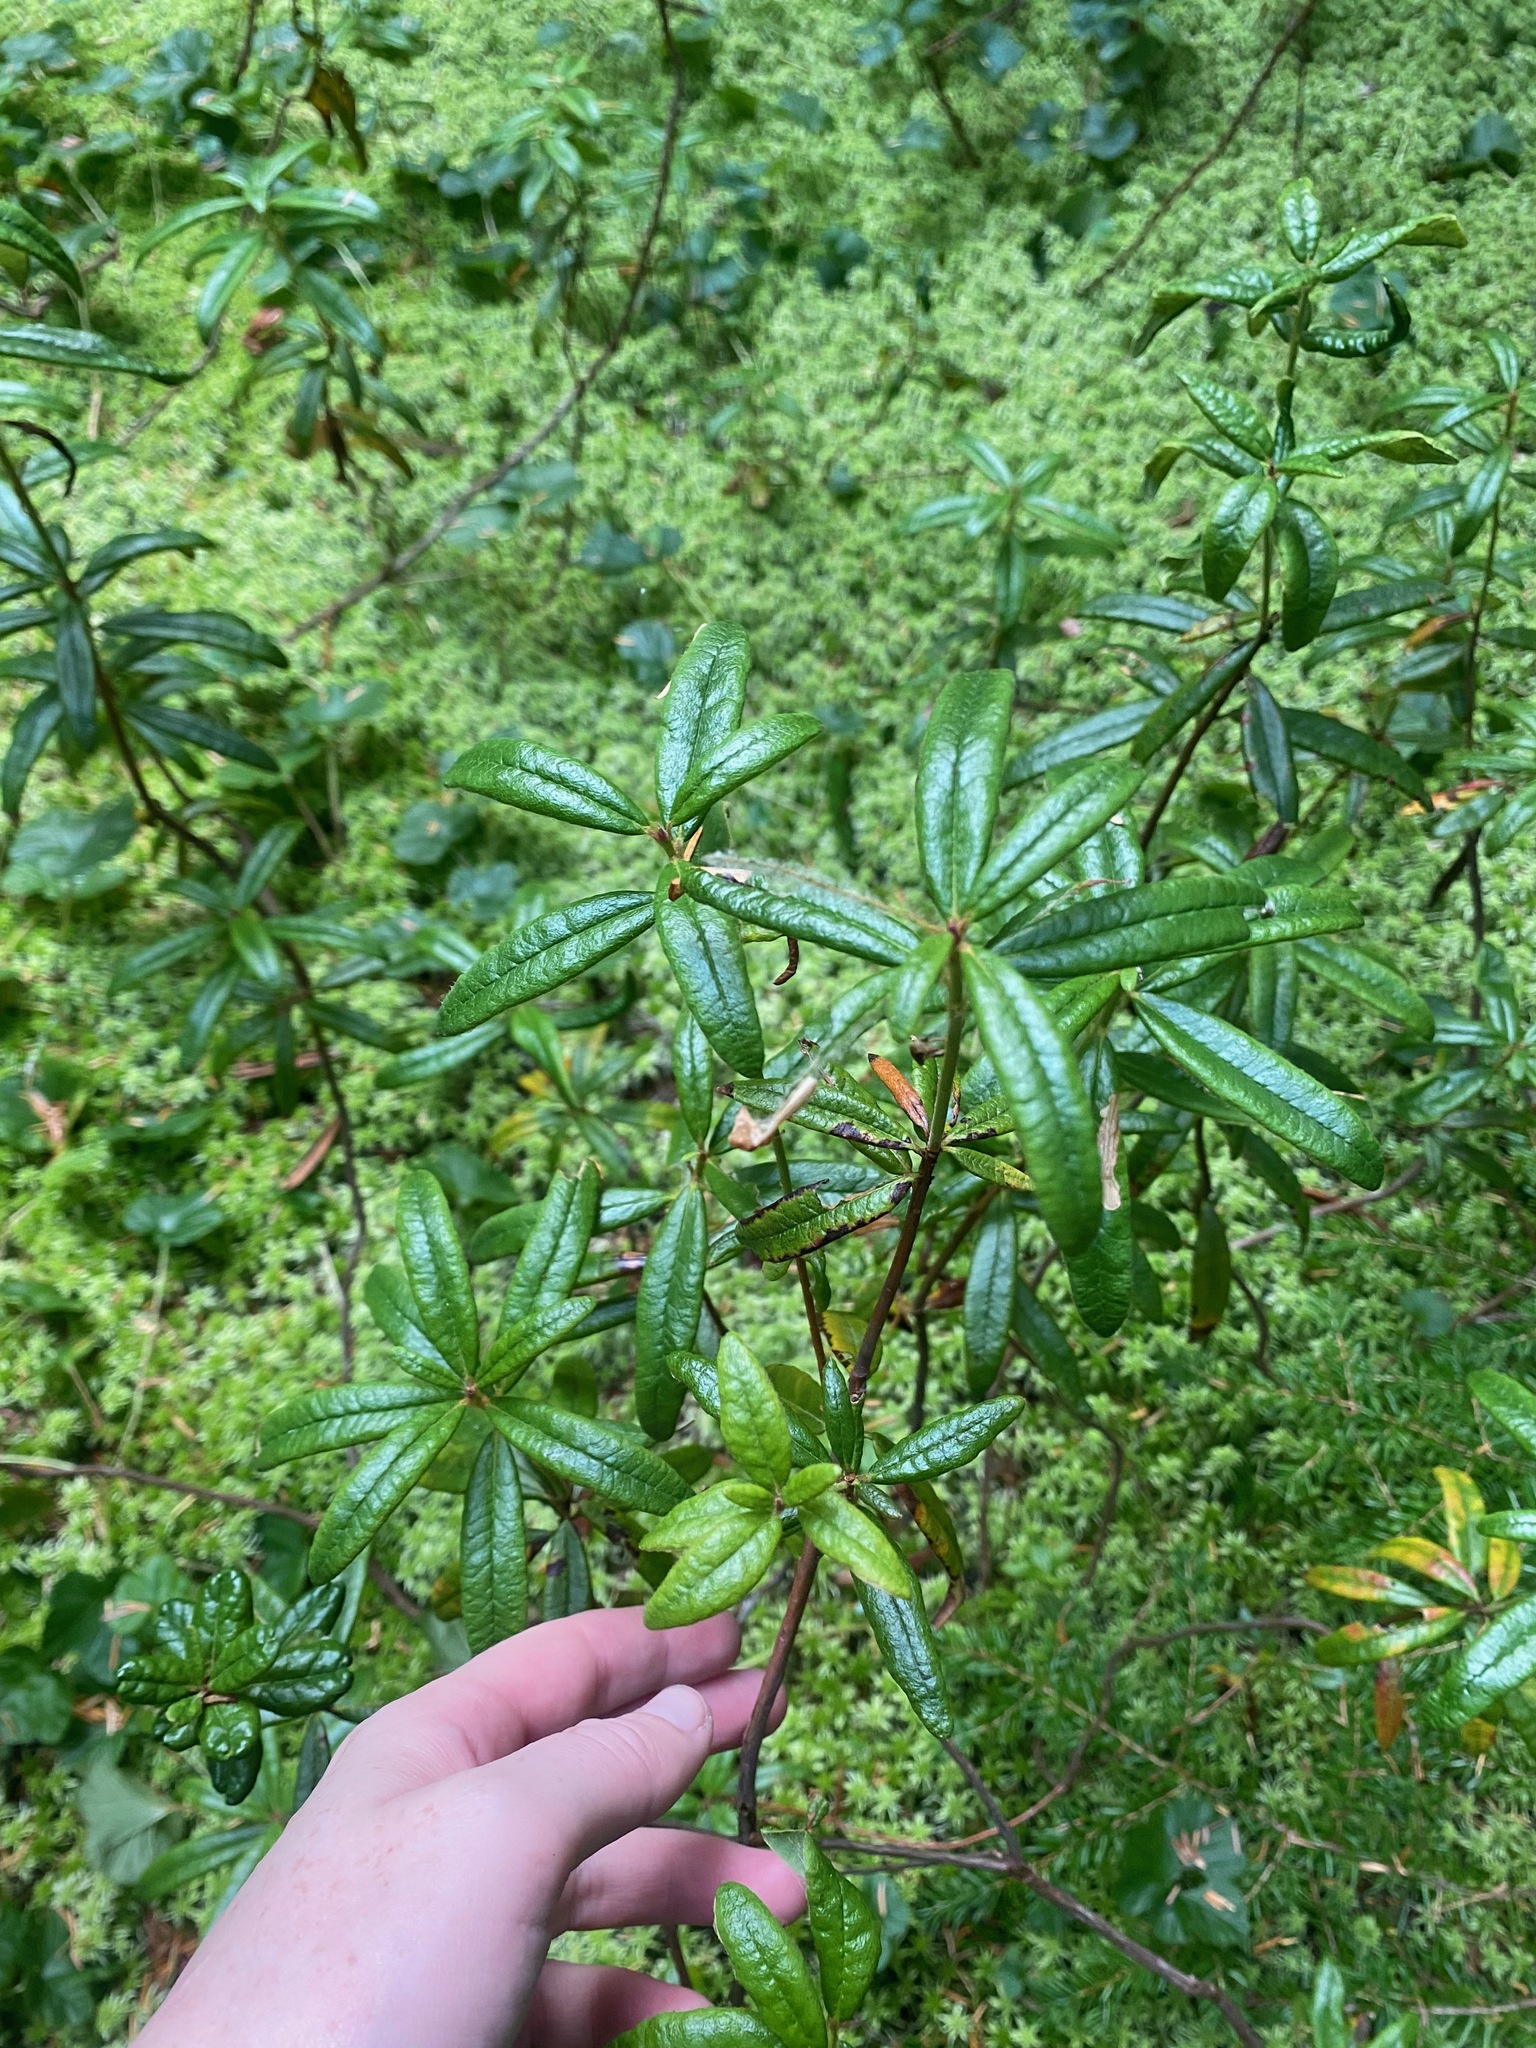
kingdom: Plantae
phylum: Tracheophyta
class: Magnoliopsida
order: Ericales
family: Ericaceae
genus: Rhododendron
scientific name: Rhododendron groenlandicum
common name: Bog labrador tea
